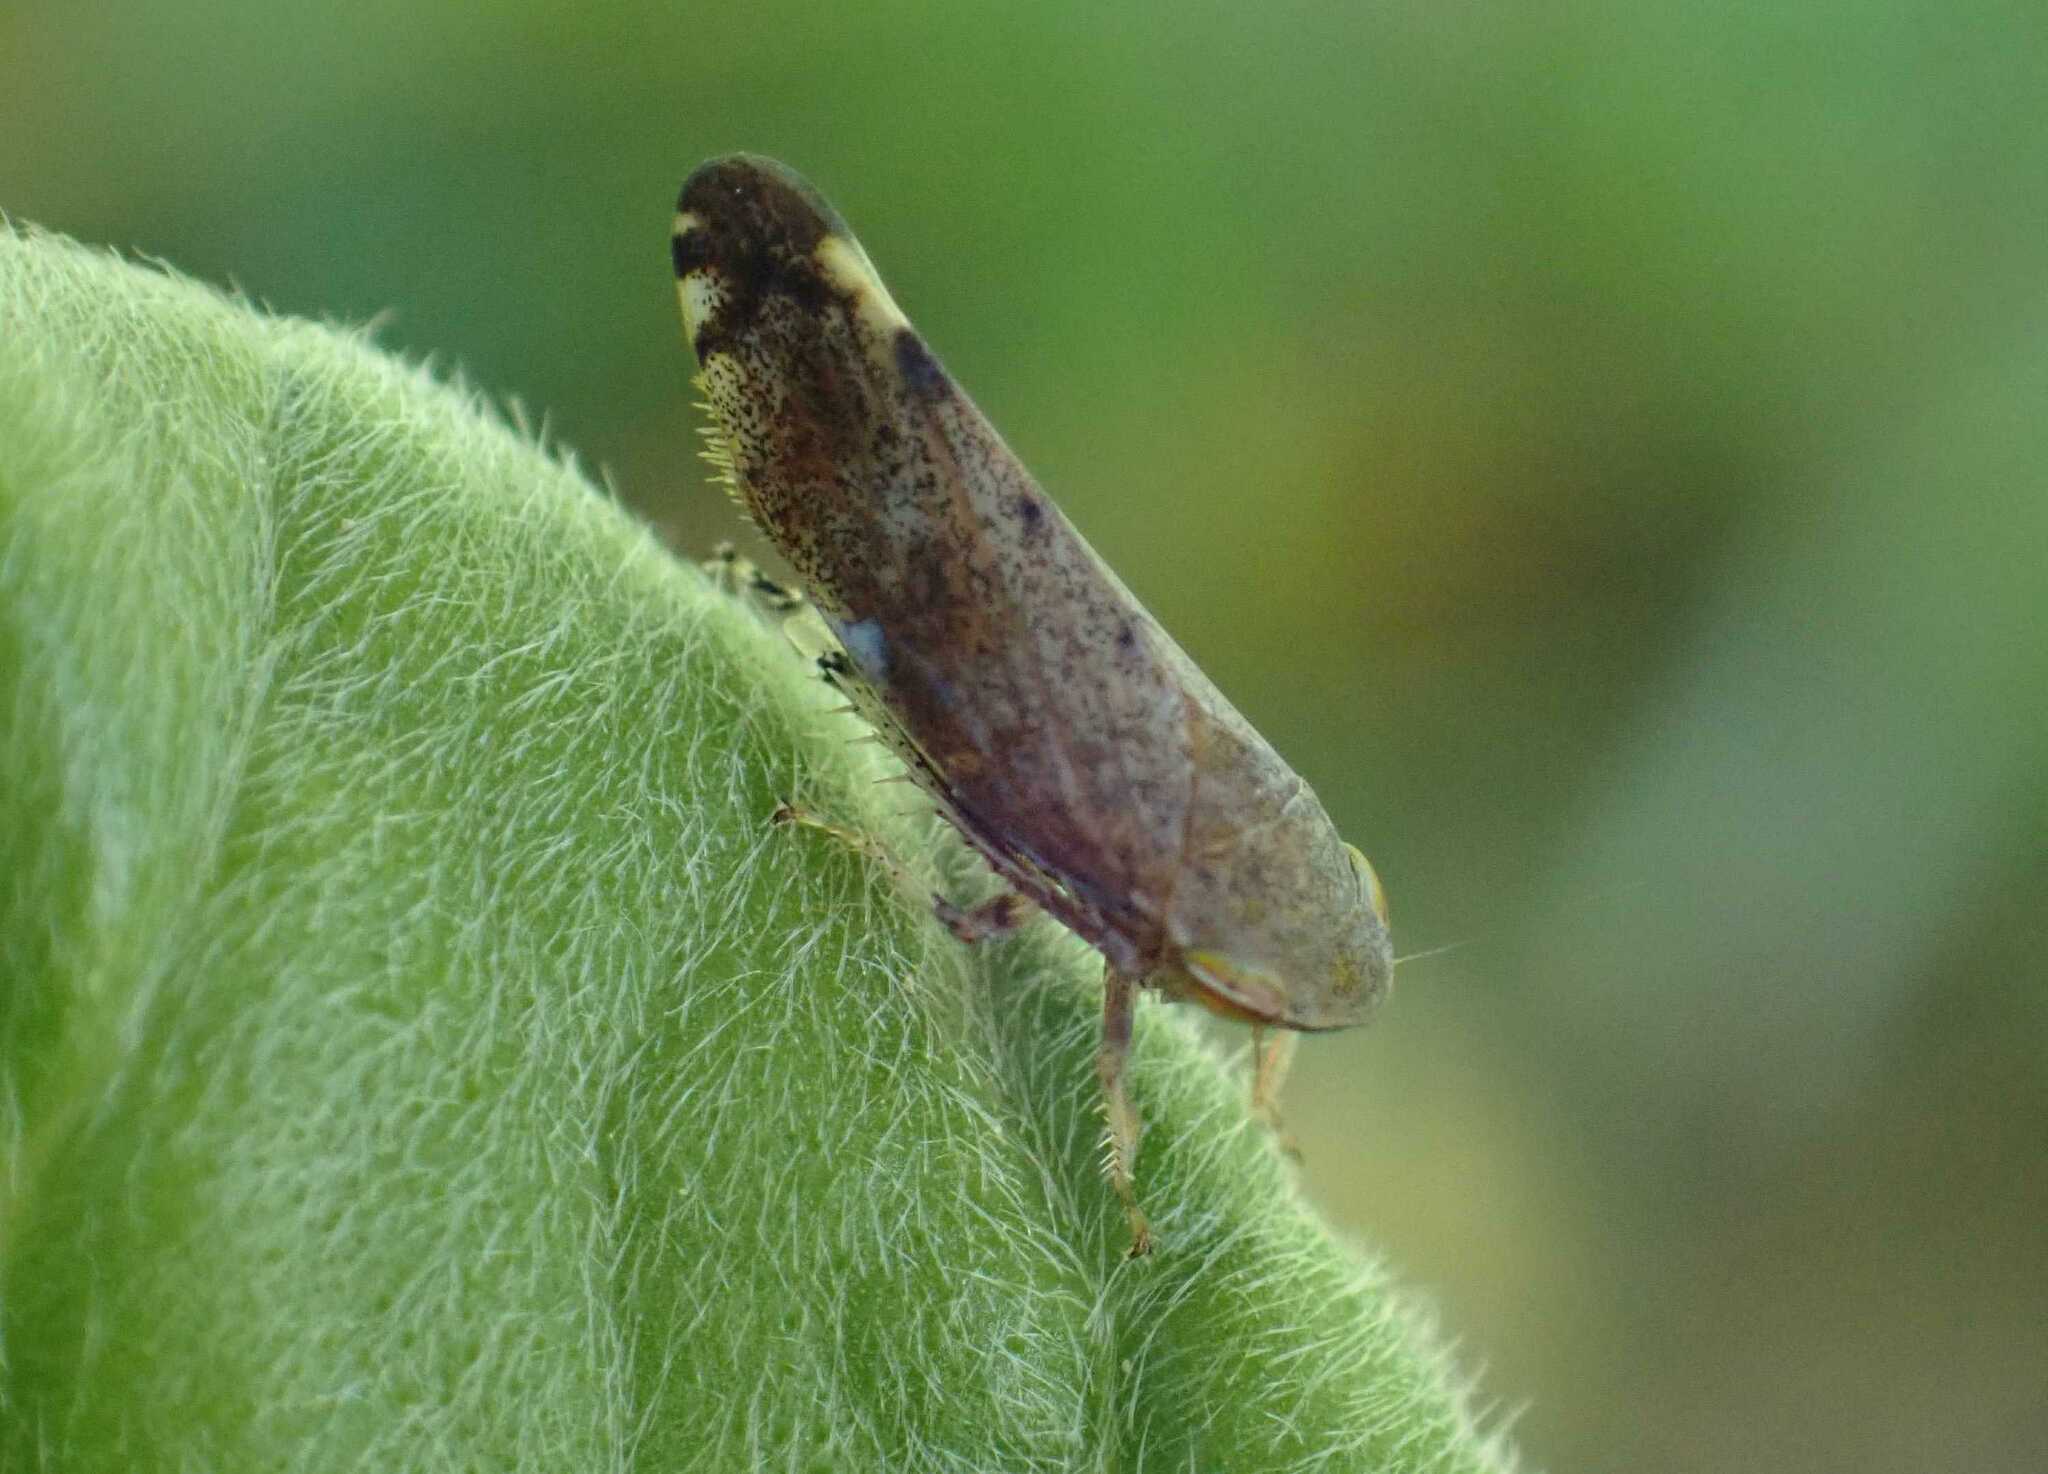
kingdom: Animalia
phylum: Arthropoda
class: Insecta
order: Hemiptera
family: Cicadellidae
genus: Fieberiella
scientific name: Fieberiella
